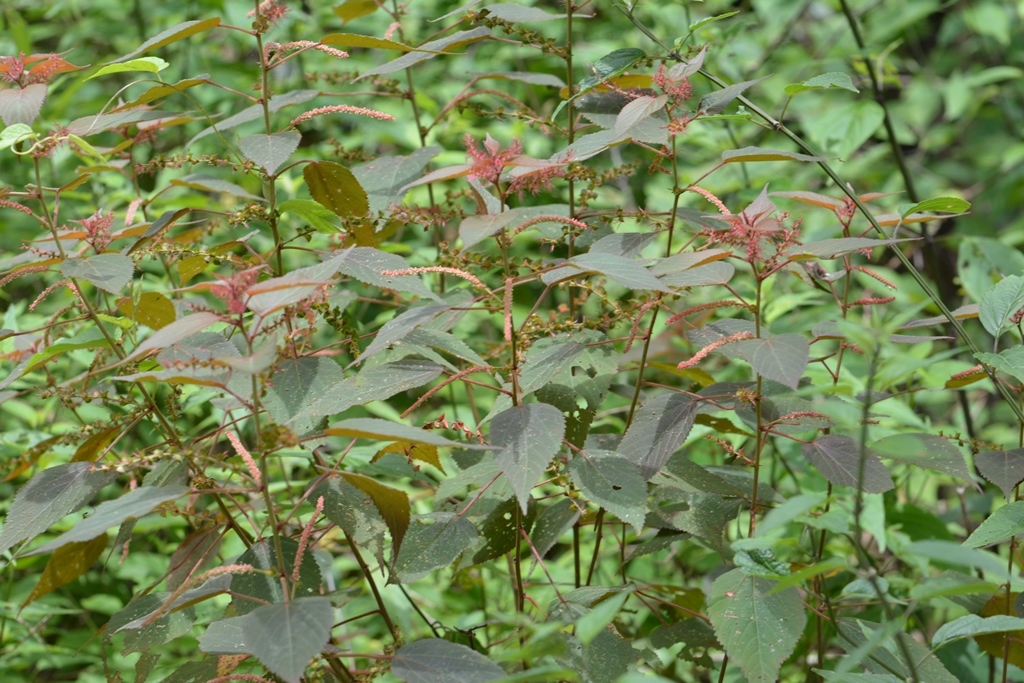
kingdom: Plantae
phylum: Tracheophyta
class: Magnoliopsida
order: Malpighiales
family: Euphorbiaceae
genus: Acalypha
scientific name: Acalypha chiapensis
